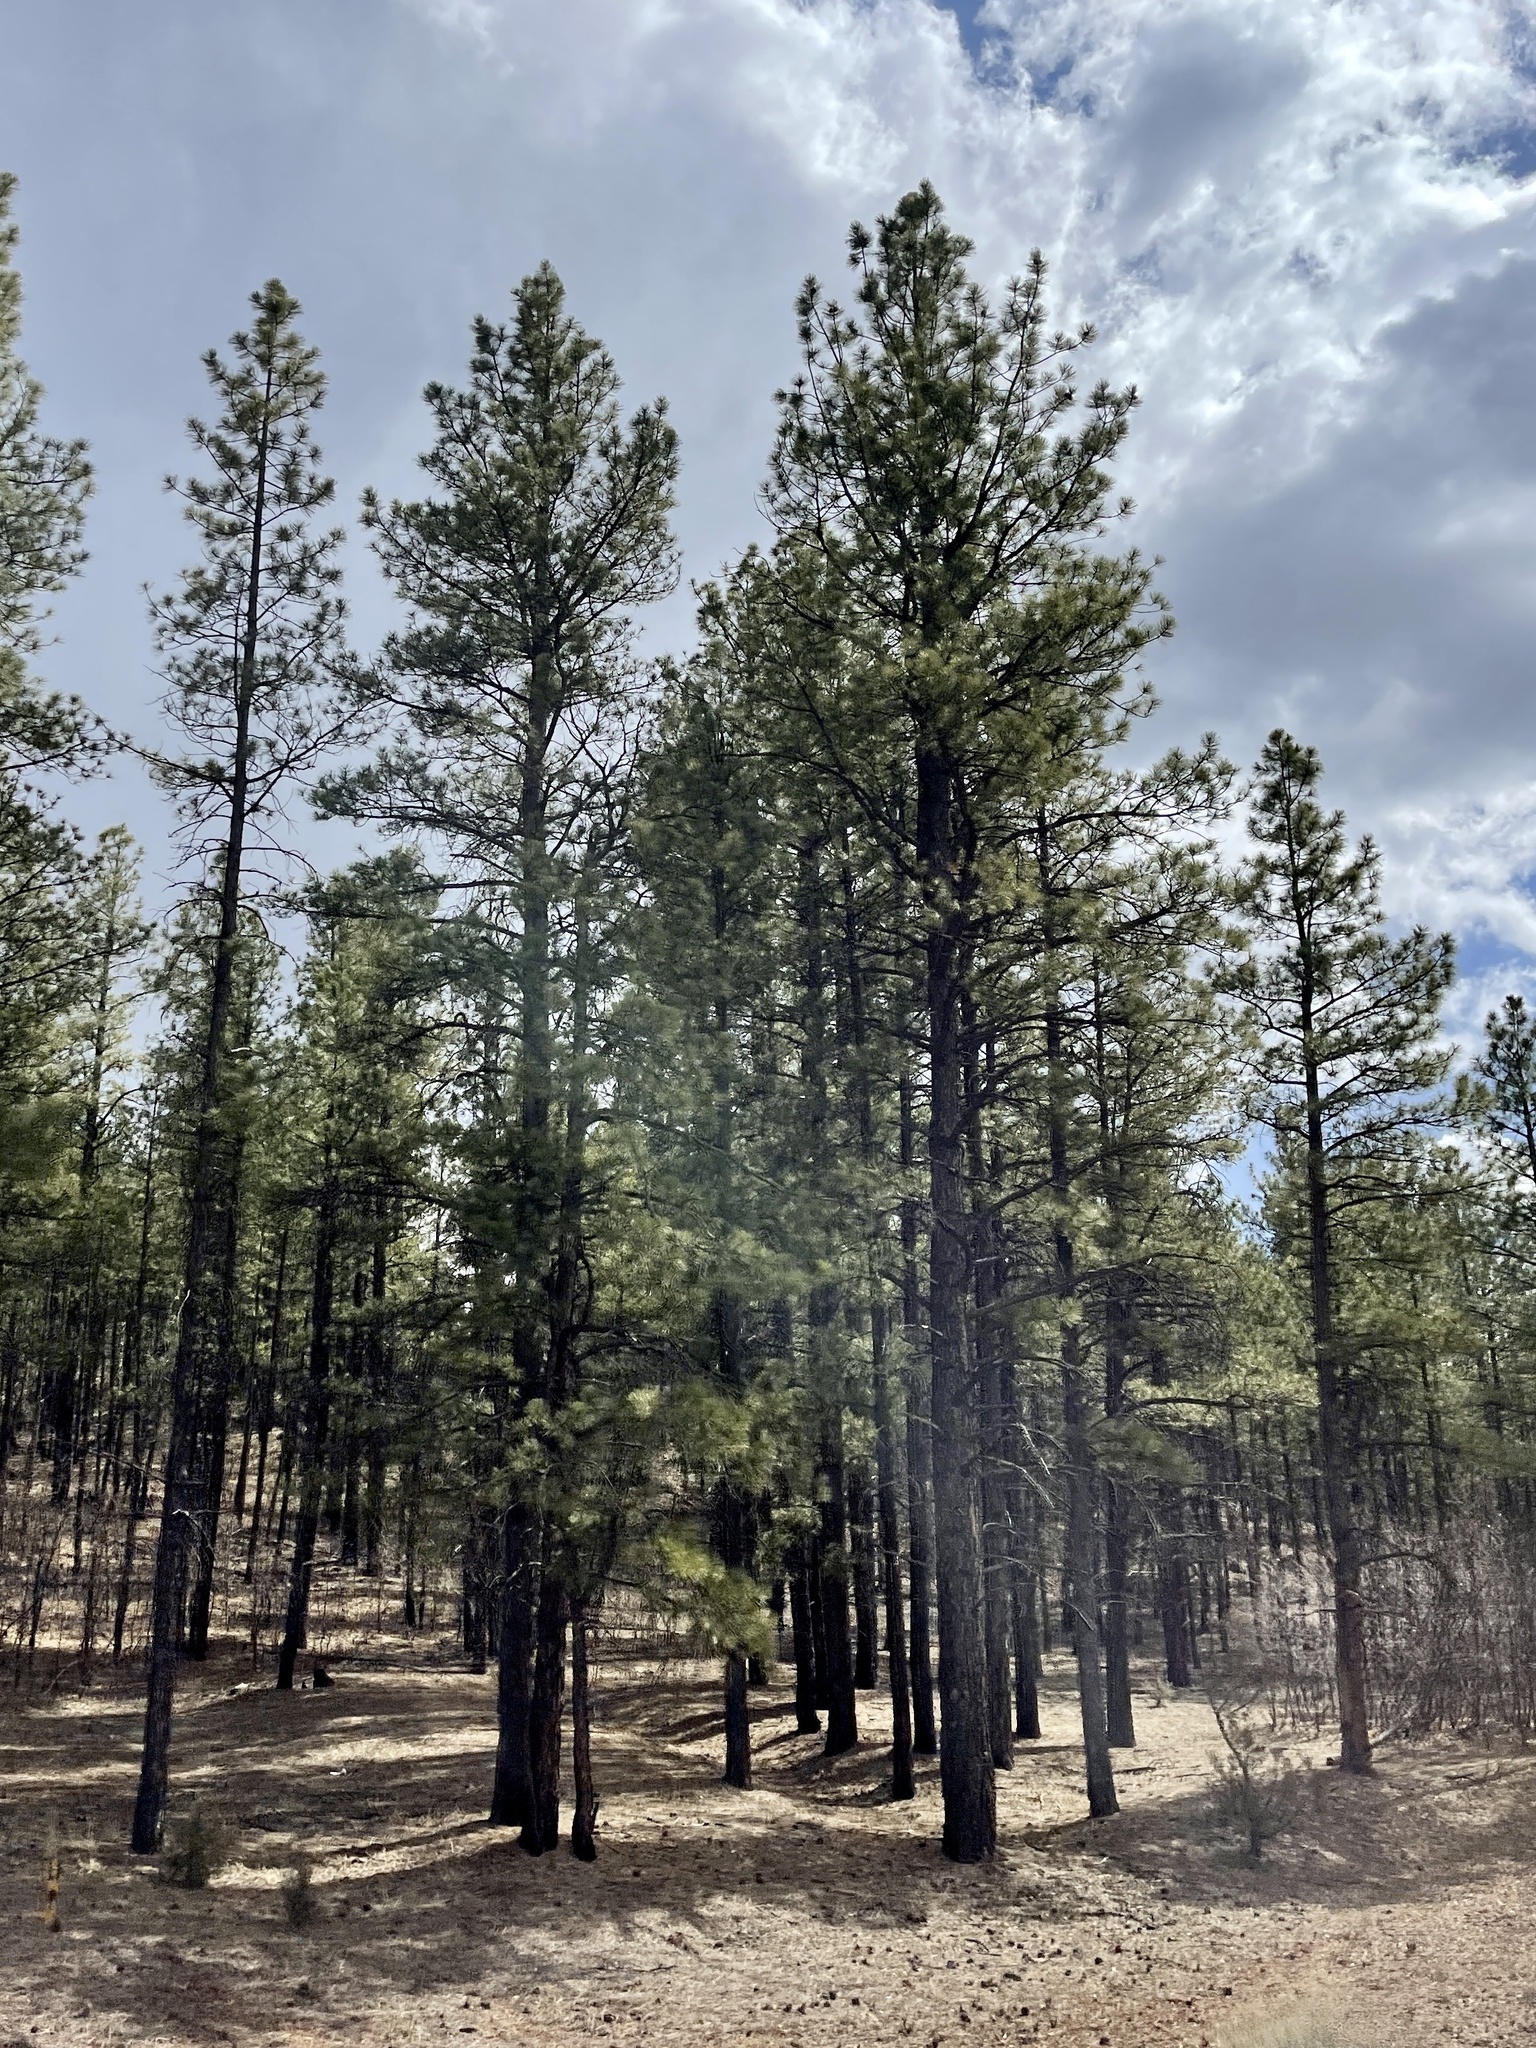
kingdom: Plantae
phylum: Tracheophyta
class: Pinopsida
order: Pinales
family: Pinaceae
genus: Pinus
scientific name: Pinus ponderosa
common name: Western yellow-pine
